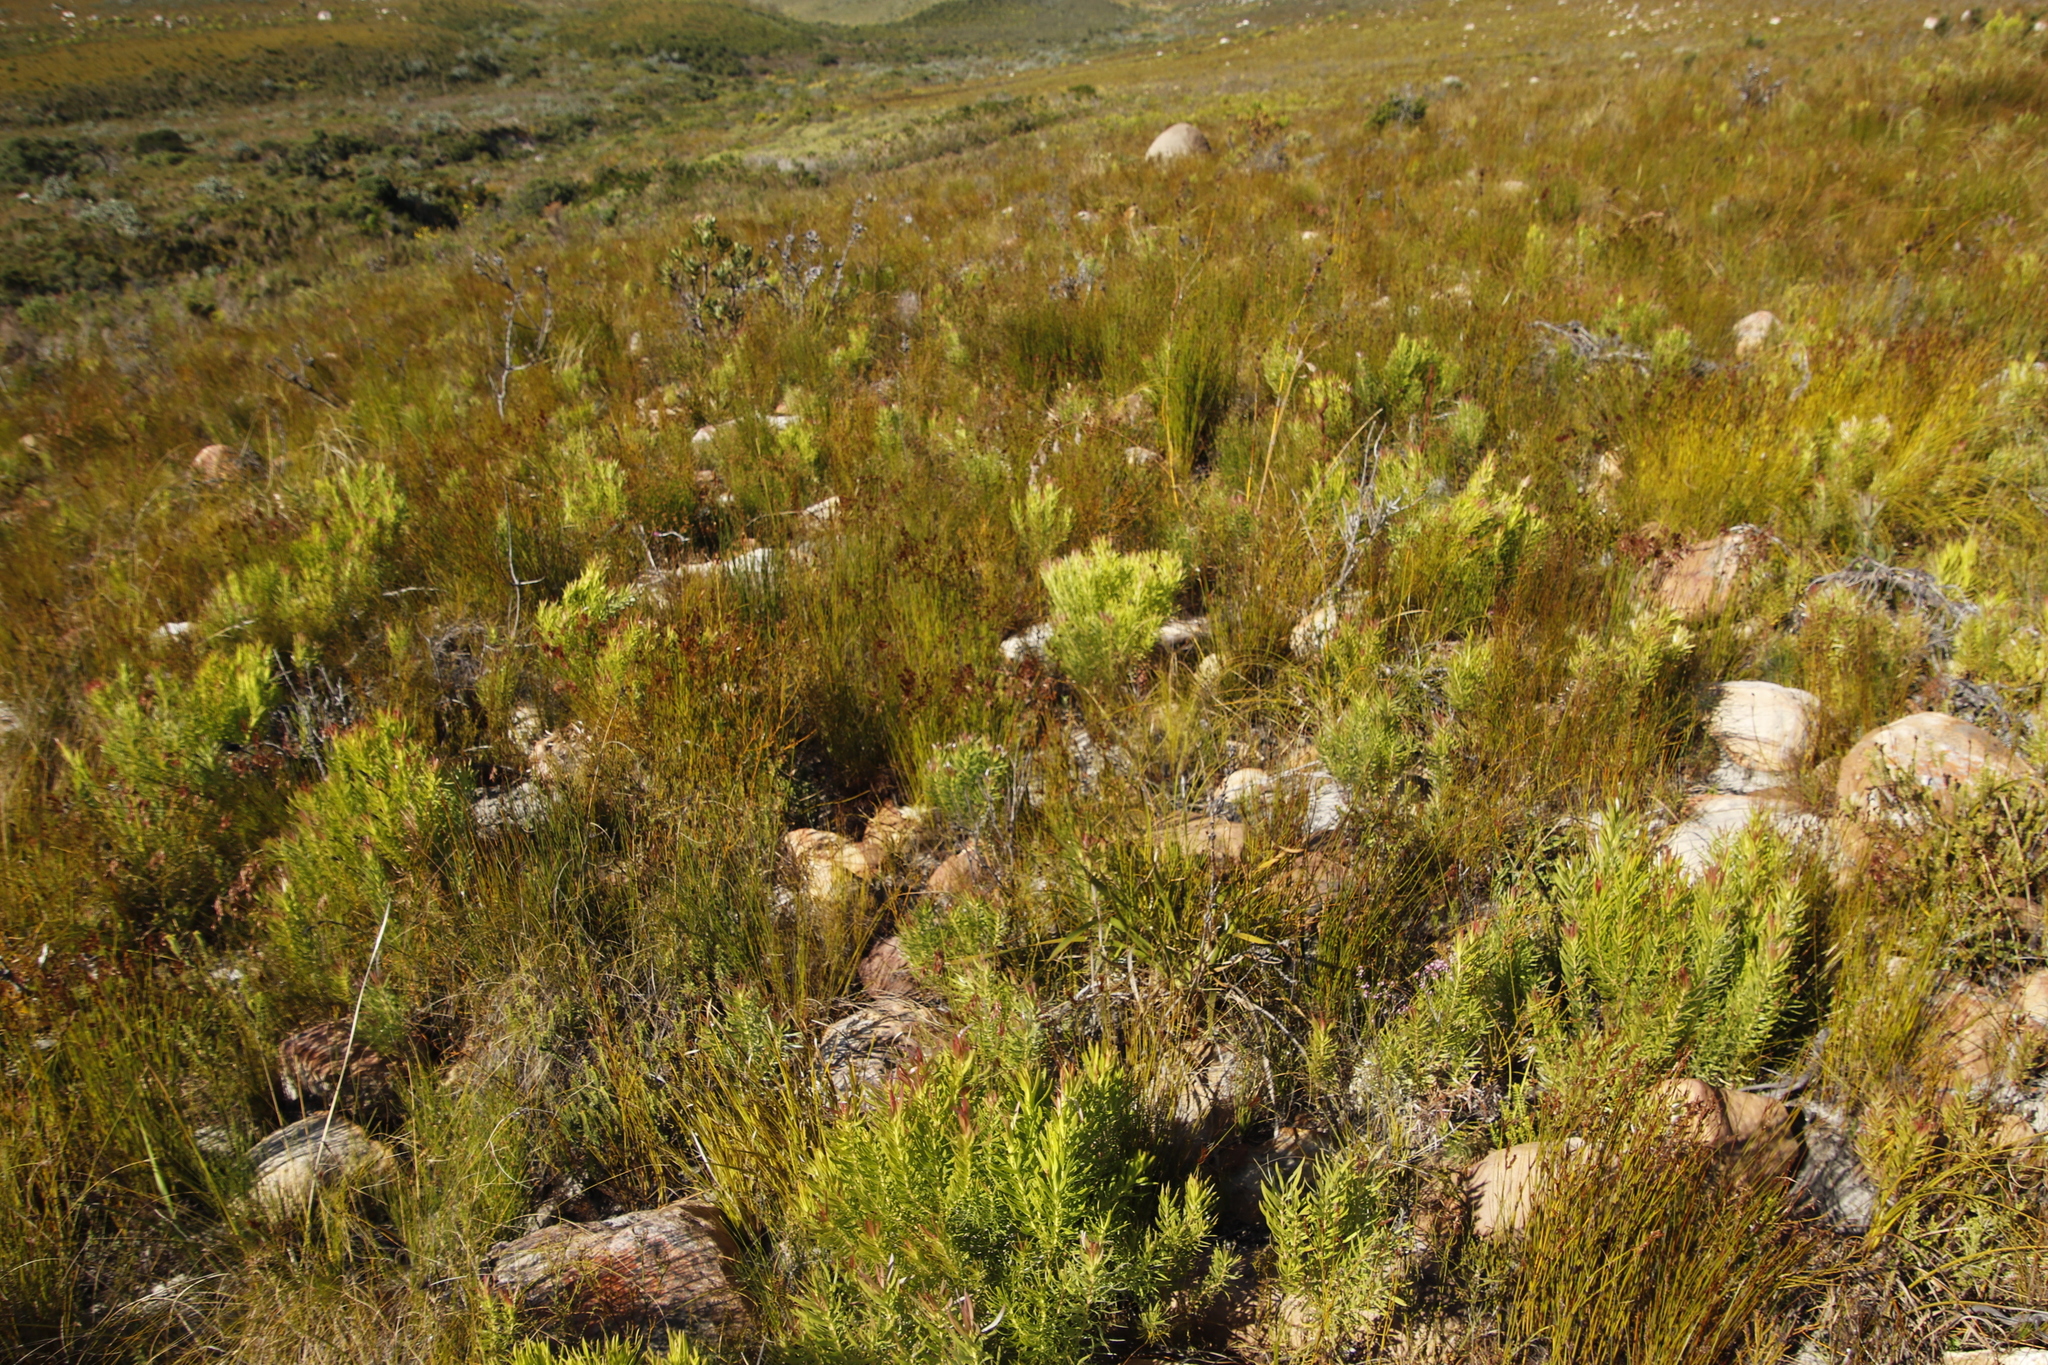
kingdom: Plantae
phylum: Tracheophyta
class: Magnoliopsida
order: Proteales
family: Proteaceae
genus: Leucadendron
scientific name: Leucadendron xanthoconus
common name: Sickle-leaf conebush
